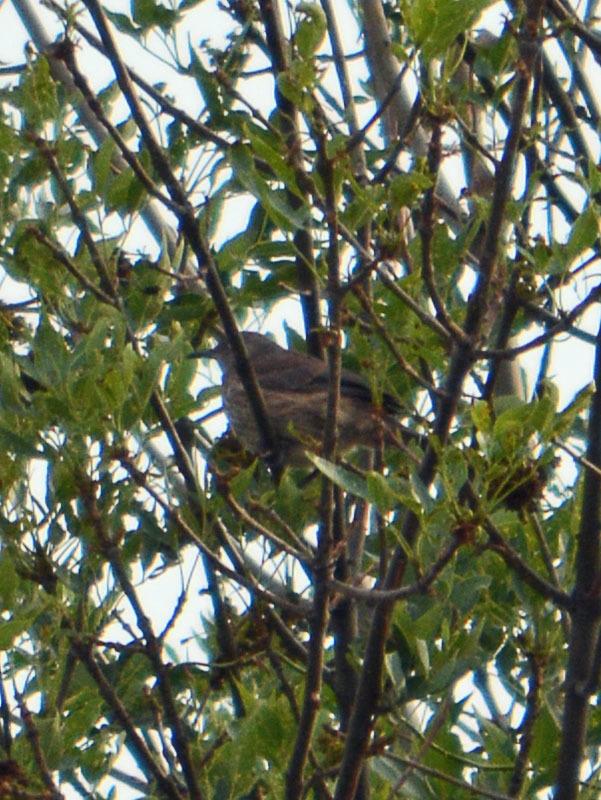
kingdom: Animalia
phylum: Chordata
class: Aves
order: Passeriformes
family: Mimidae
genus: Toxostoma
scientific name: Toxostoma curvirostre
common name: Curve-billed thrasher
